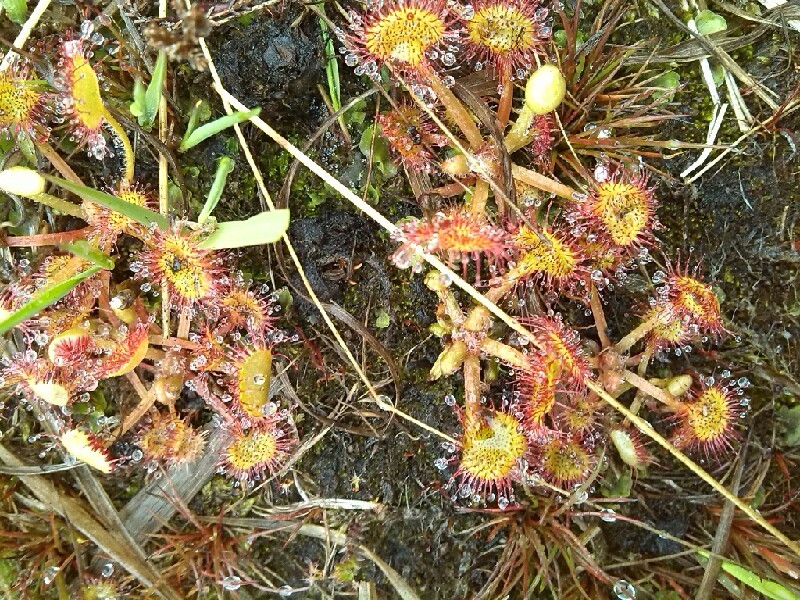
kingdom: Plantae
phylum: Tracheophyta
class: Magnoliopsida
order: Caryophyllales
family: Droseraceae
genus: Drosera
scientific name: Drosera rotundifolia
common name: Round-leaved sundew
